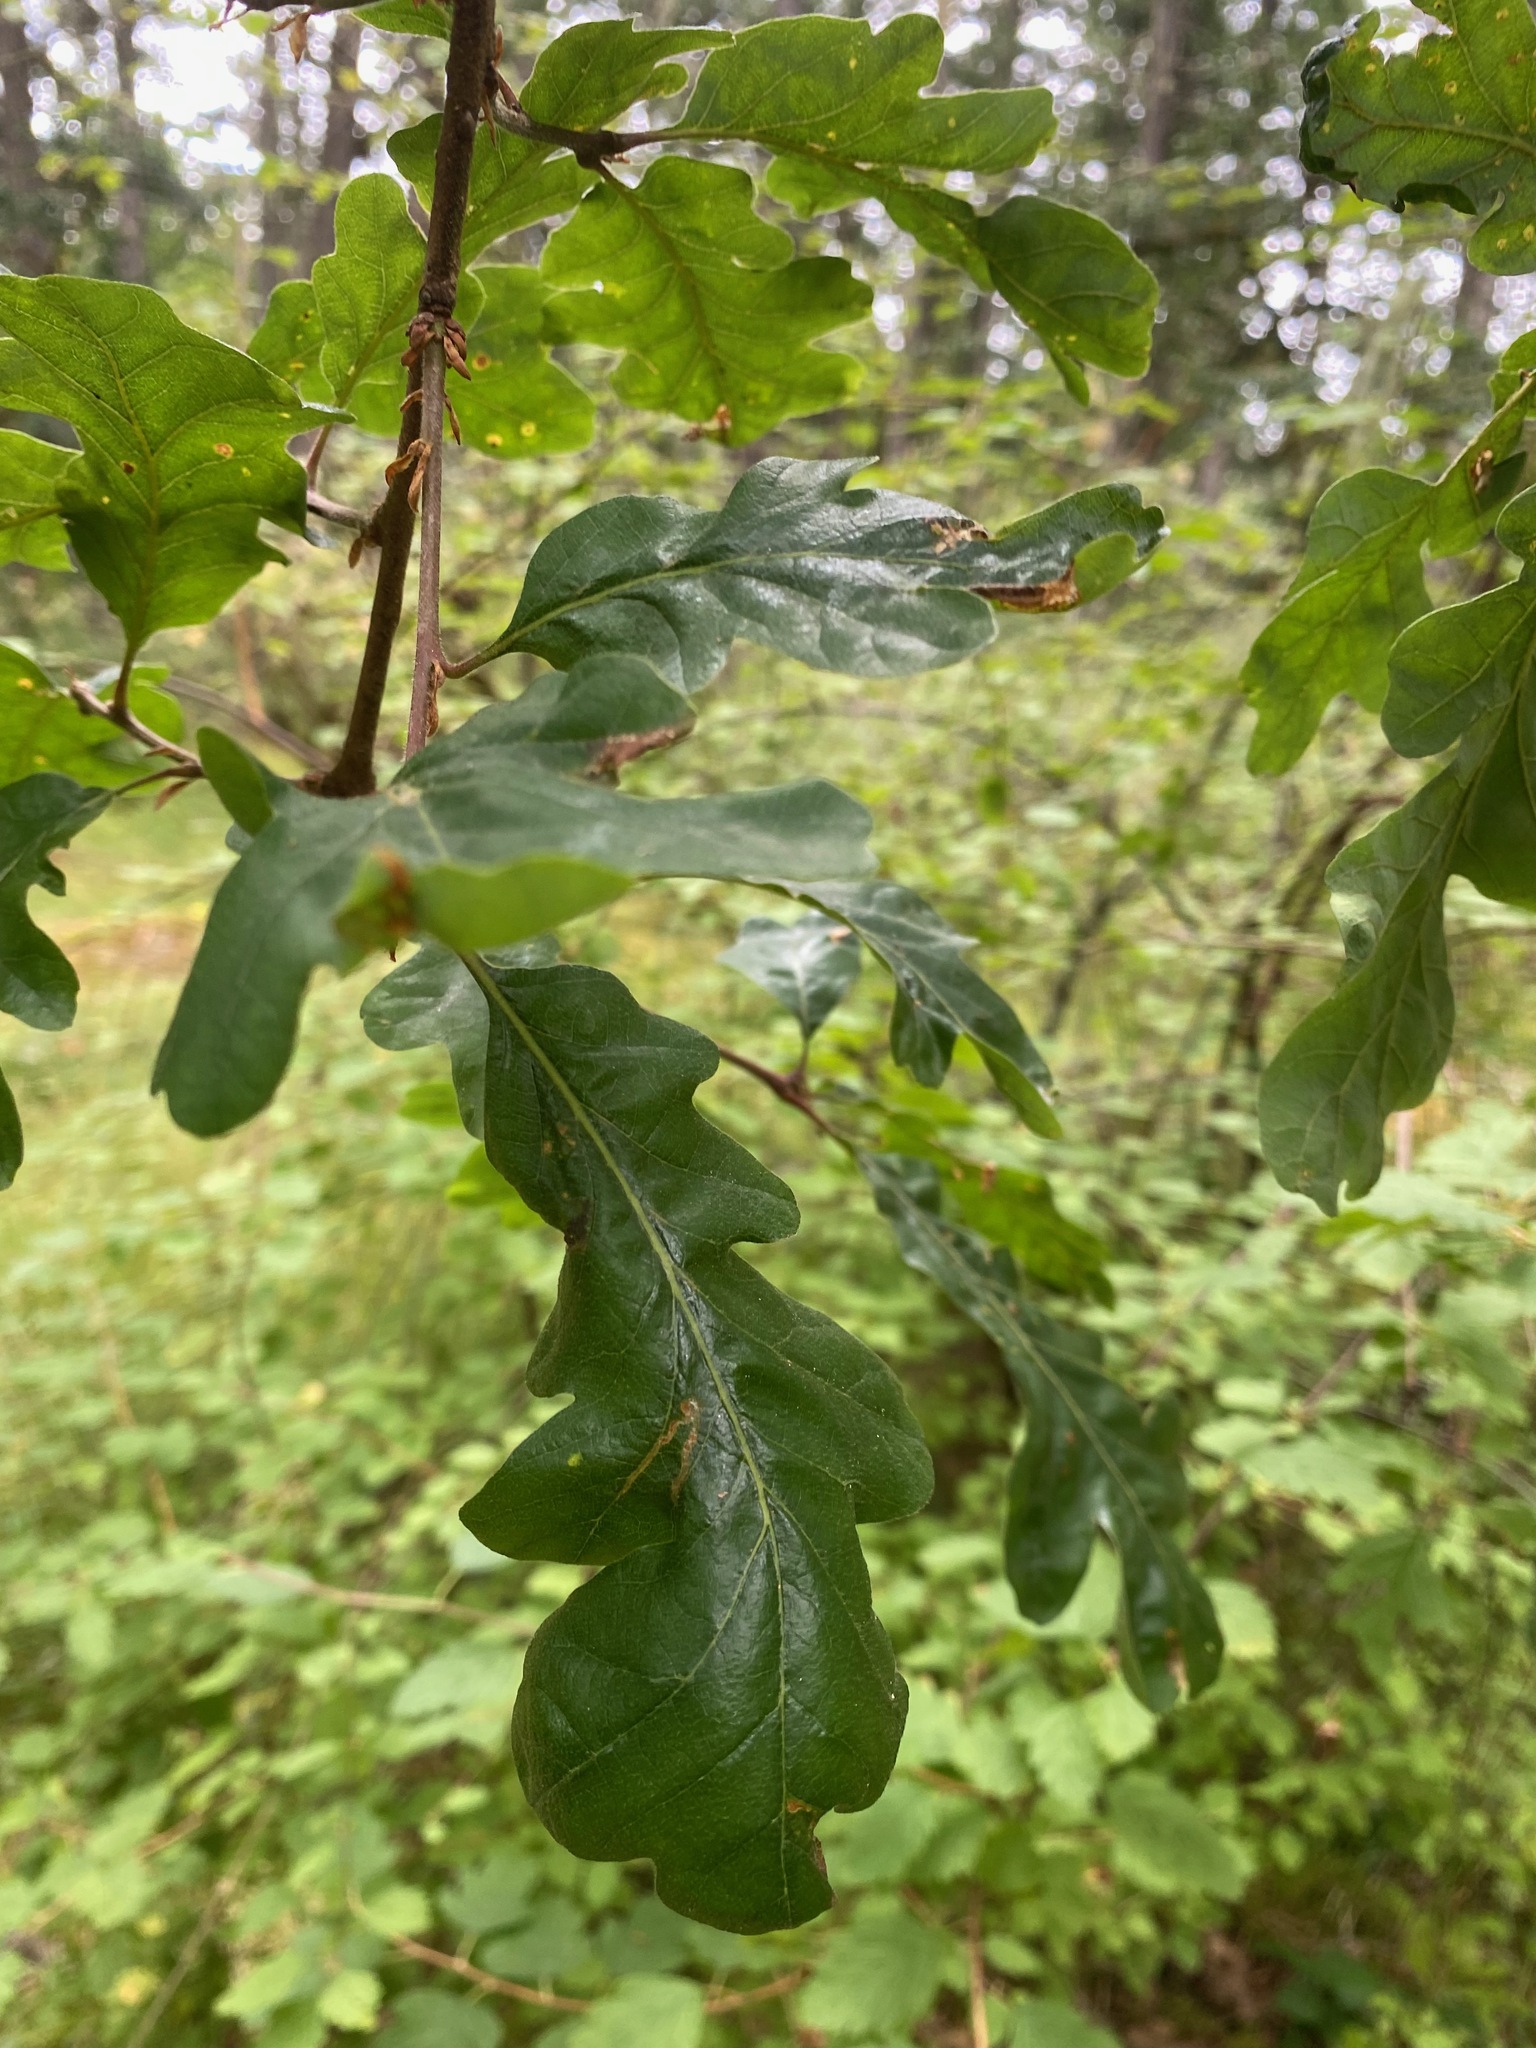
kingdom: Plantae
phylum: Tracheophyta
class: Magnoliopsida
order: Fagales
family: Fagaceae
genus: Quercus
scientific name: Quercus garryana
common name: Garry oak
